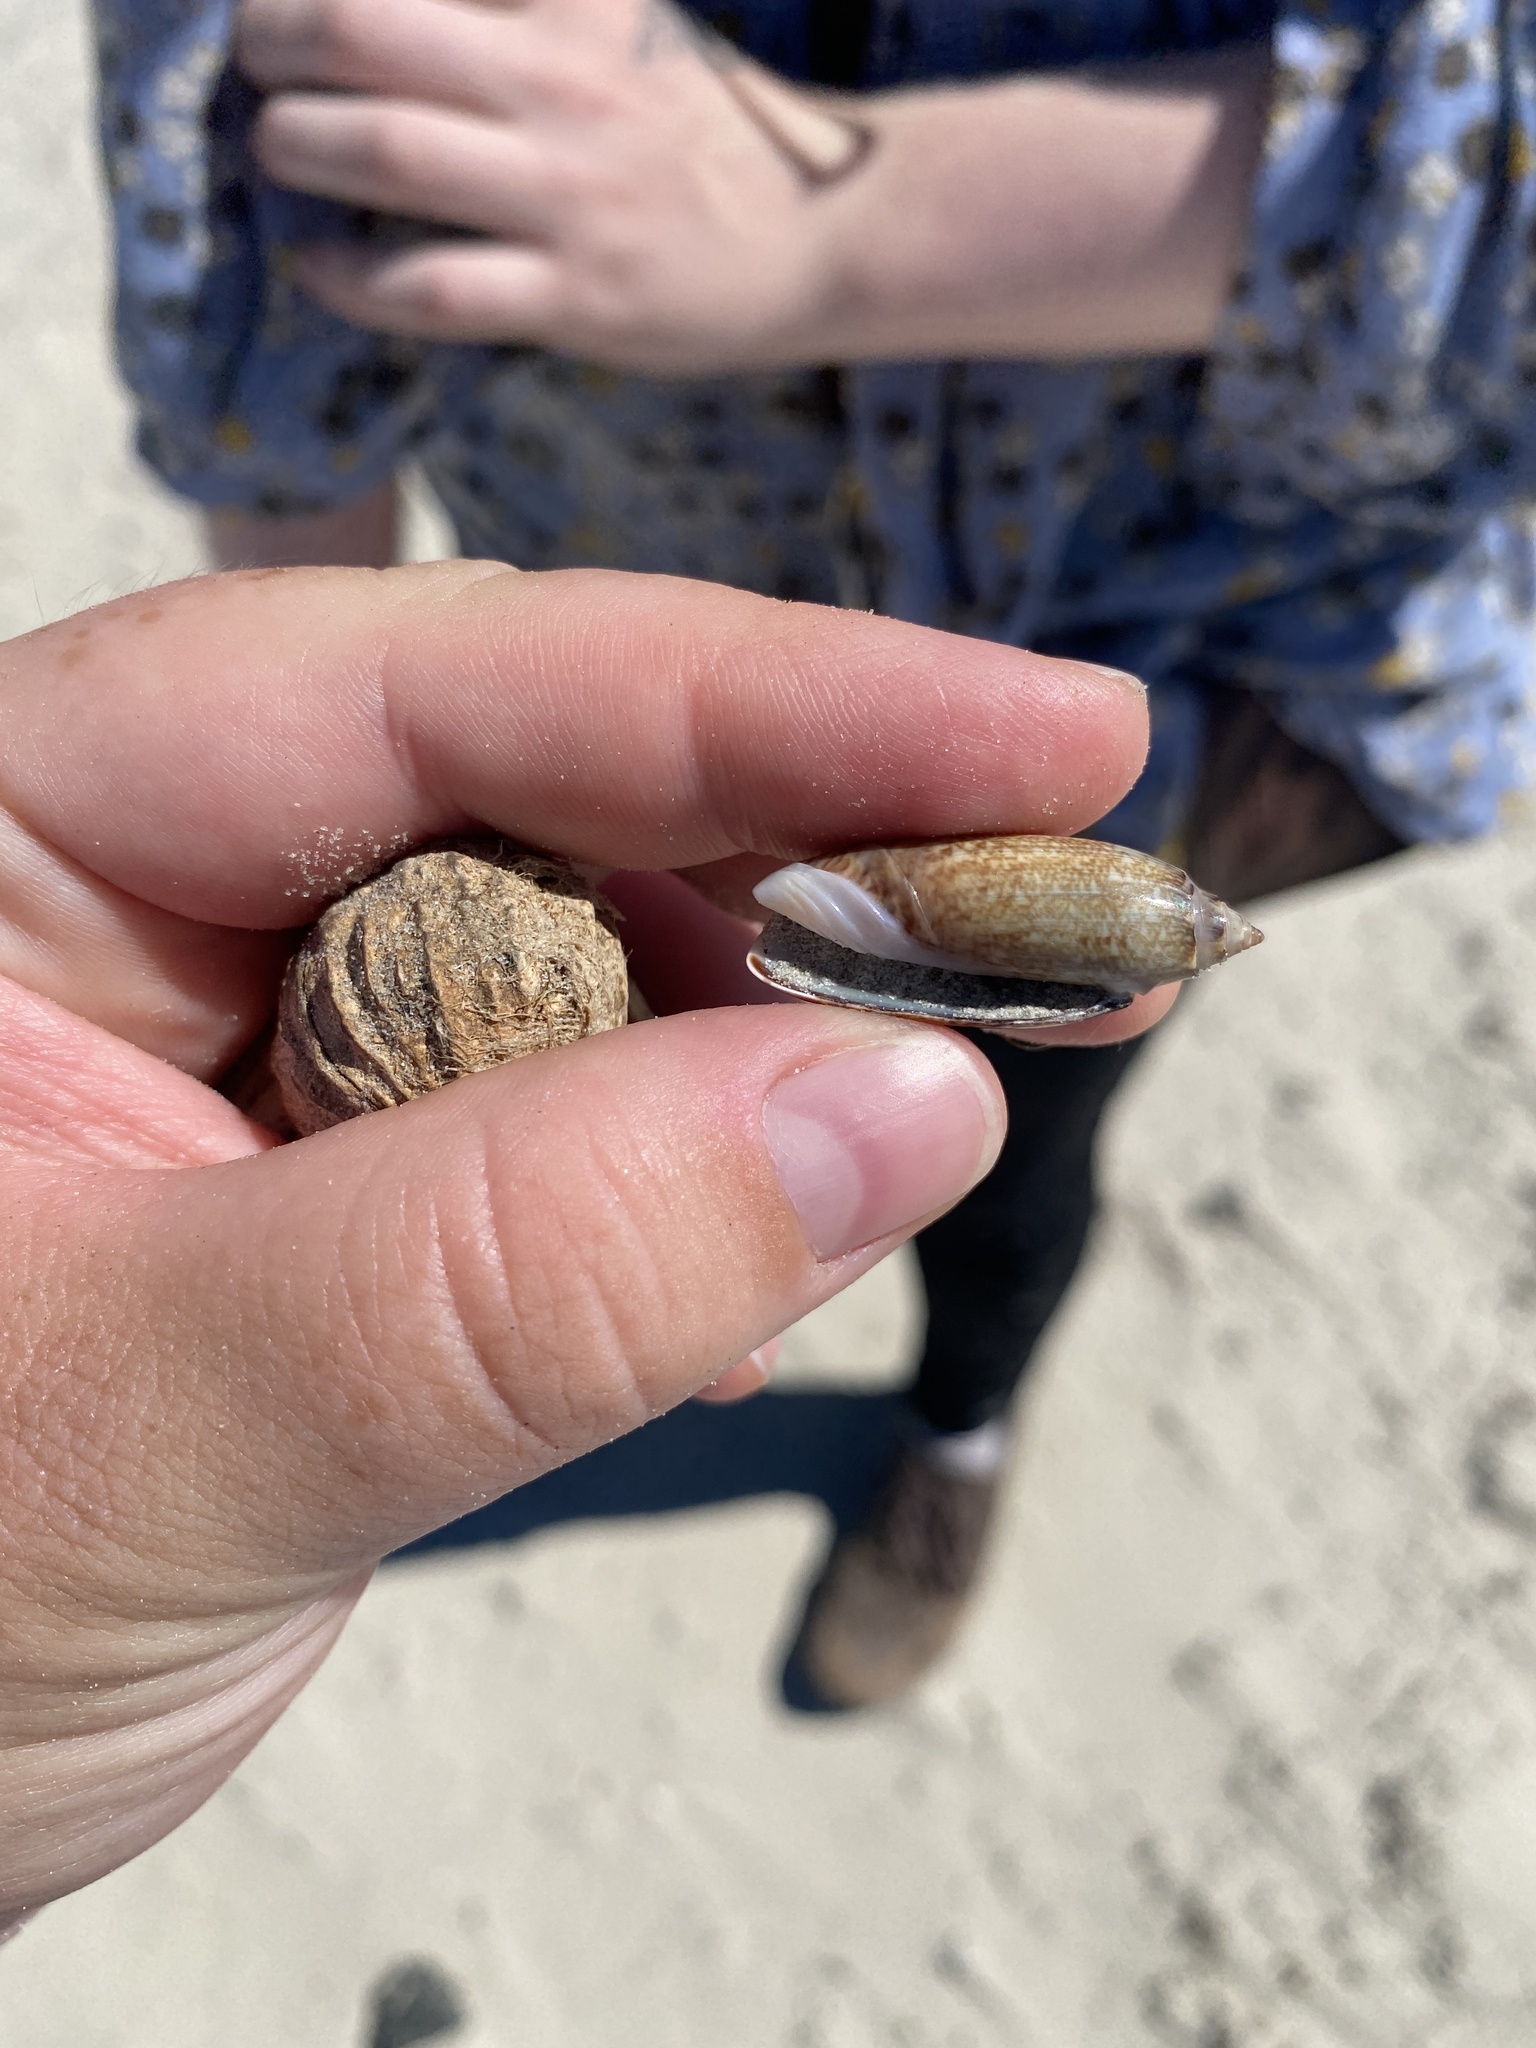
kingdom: Animalia
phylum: Mollusca
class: Gastropoda
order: Neogastropoda
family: Olividae
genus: Oliva
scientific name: Oliva sayana
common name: Lettered olive
